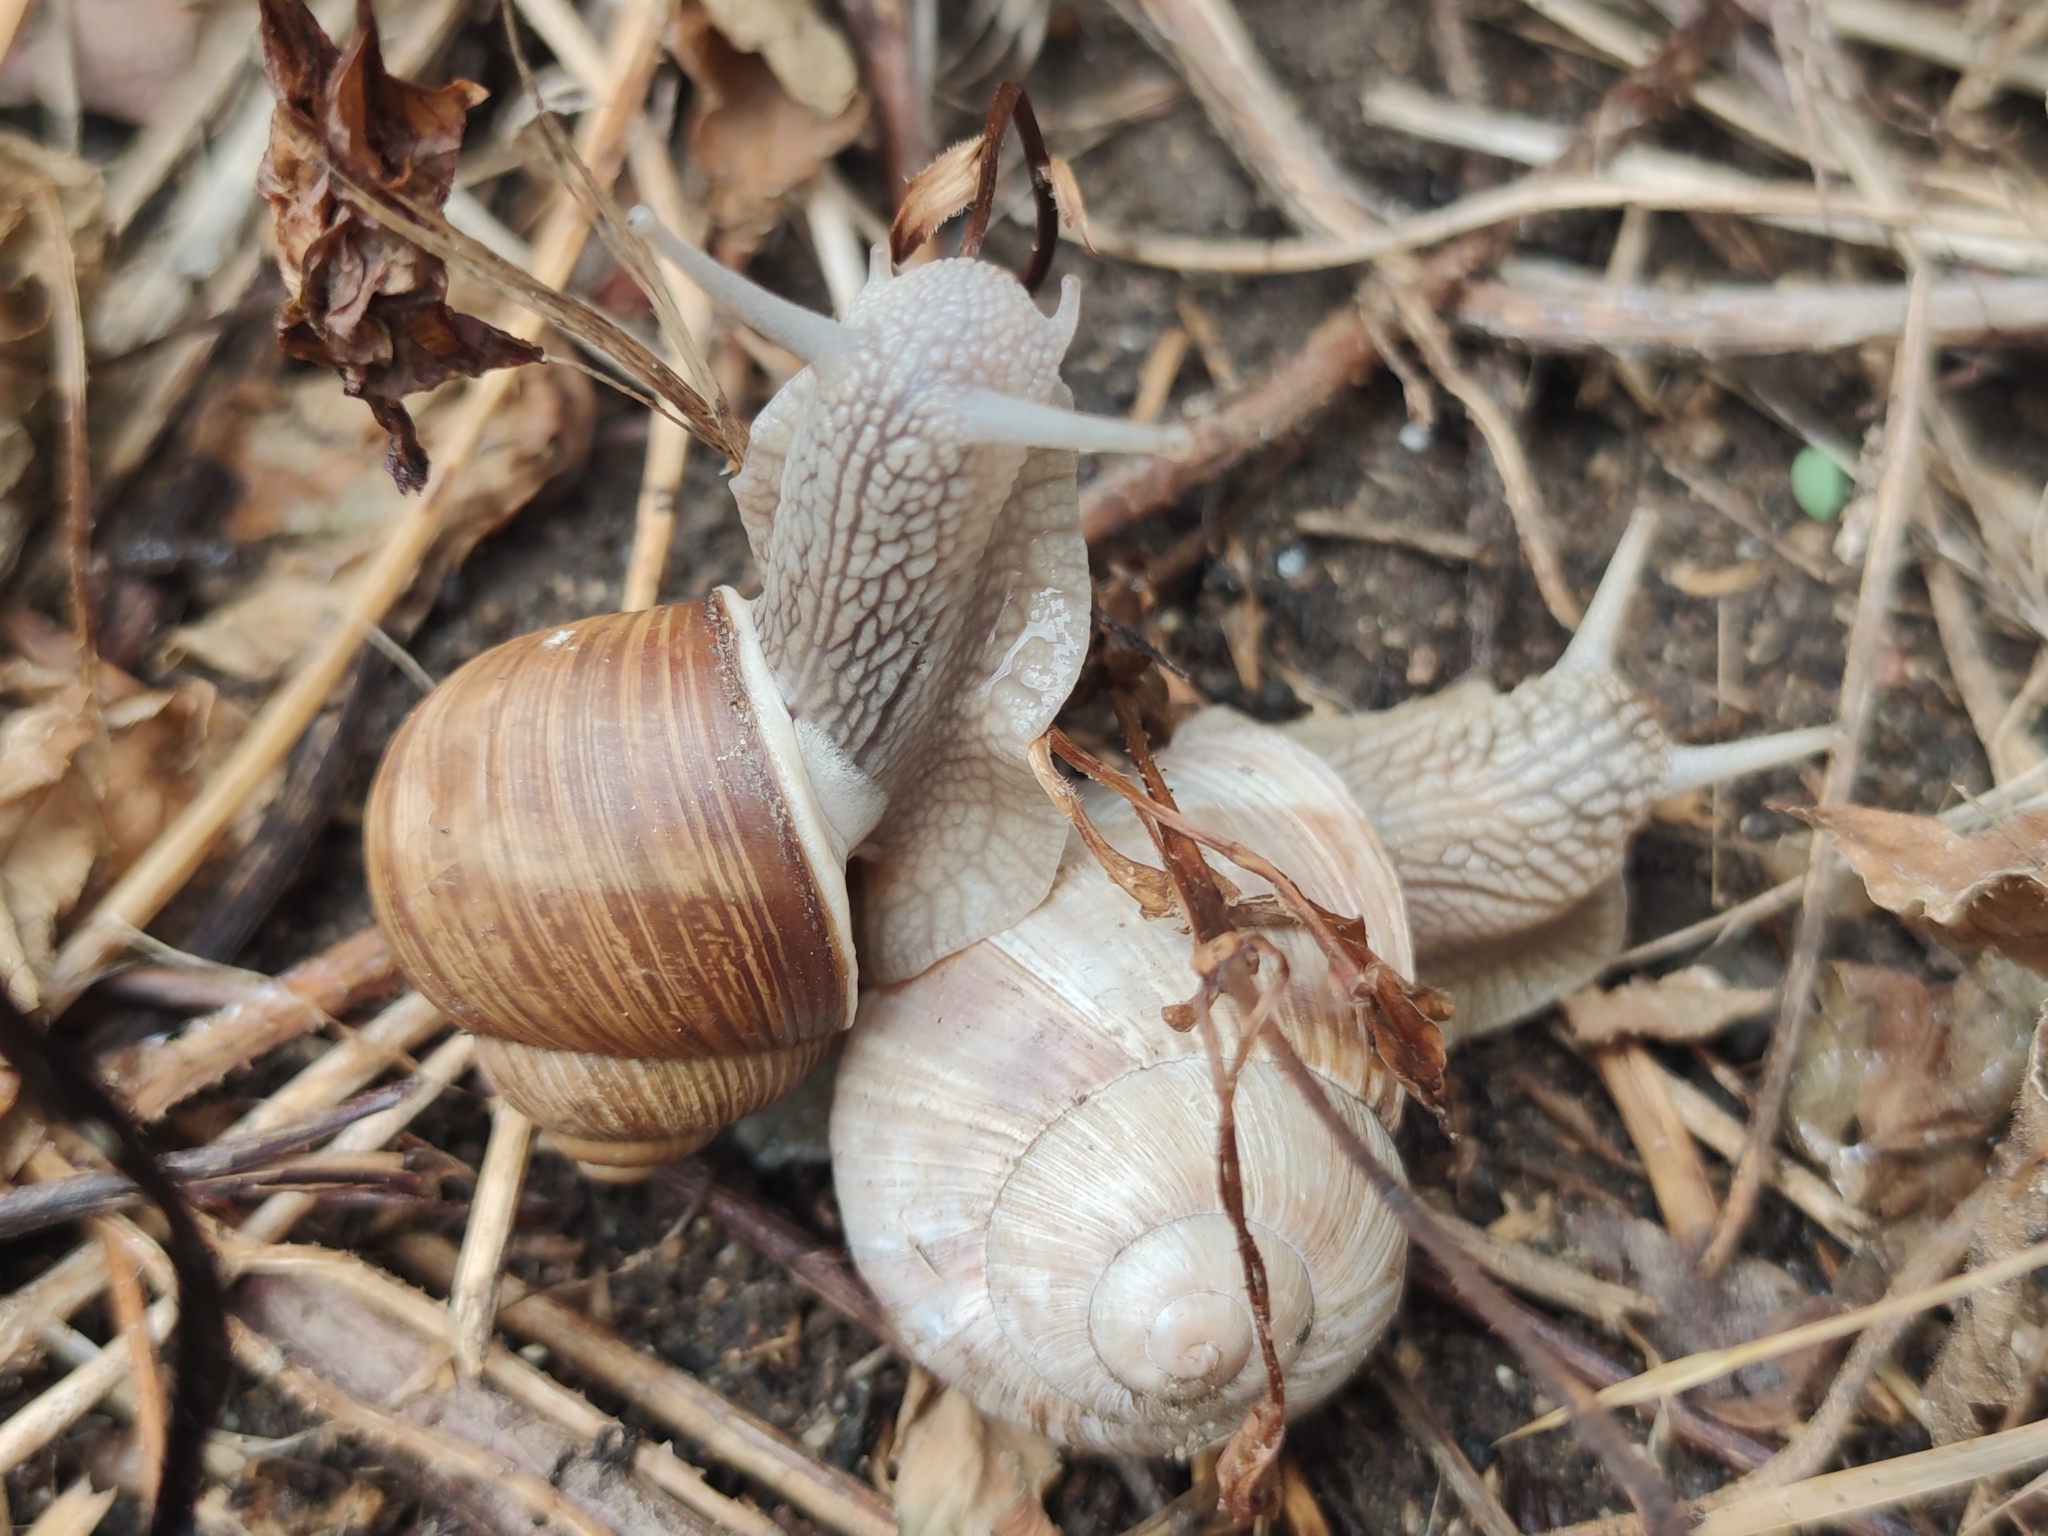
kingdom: Animalia
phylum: Mollusca
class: Gastropoda
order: Stylommatophora
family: Helicidae
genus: Helix
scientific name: Helix pomatia
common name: Roman snail
